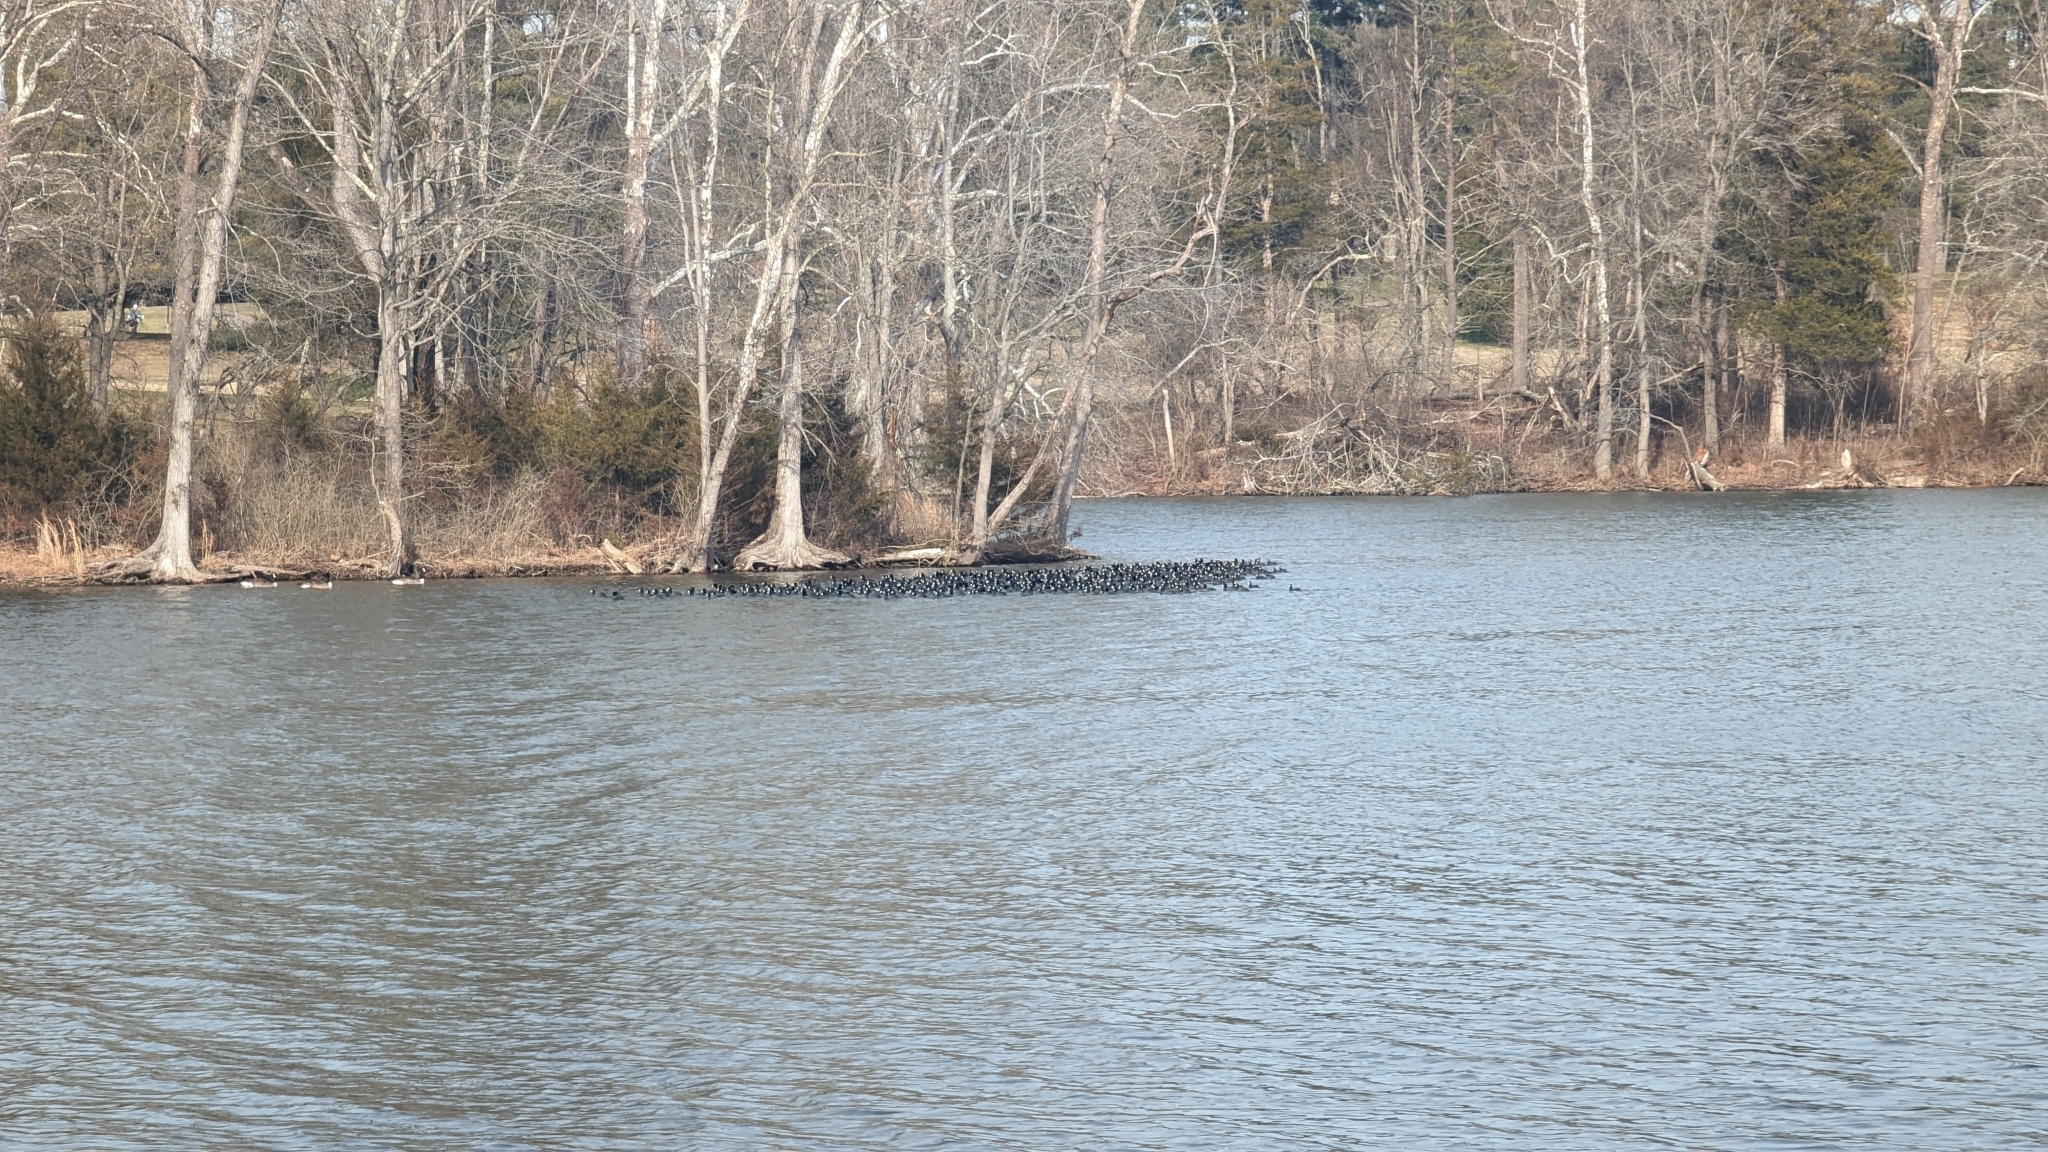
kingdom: Animalia
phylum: Chordata
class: Aves
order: Gruiformes
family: Rallidae
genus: Fulica
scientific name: Fulica americana
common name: American coot
